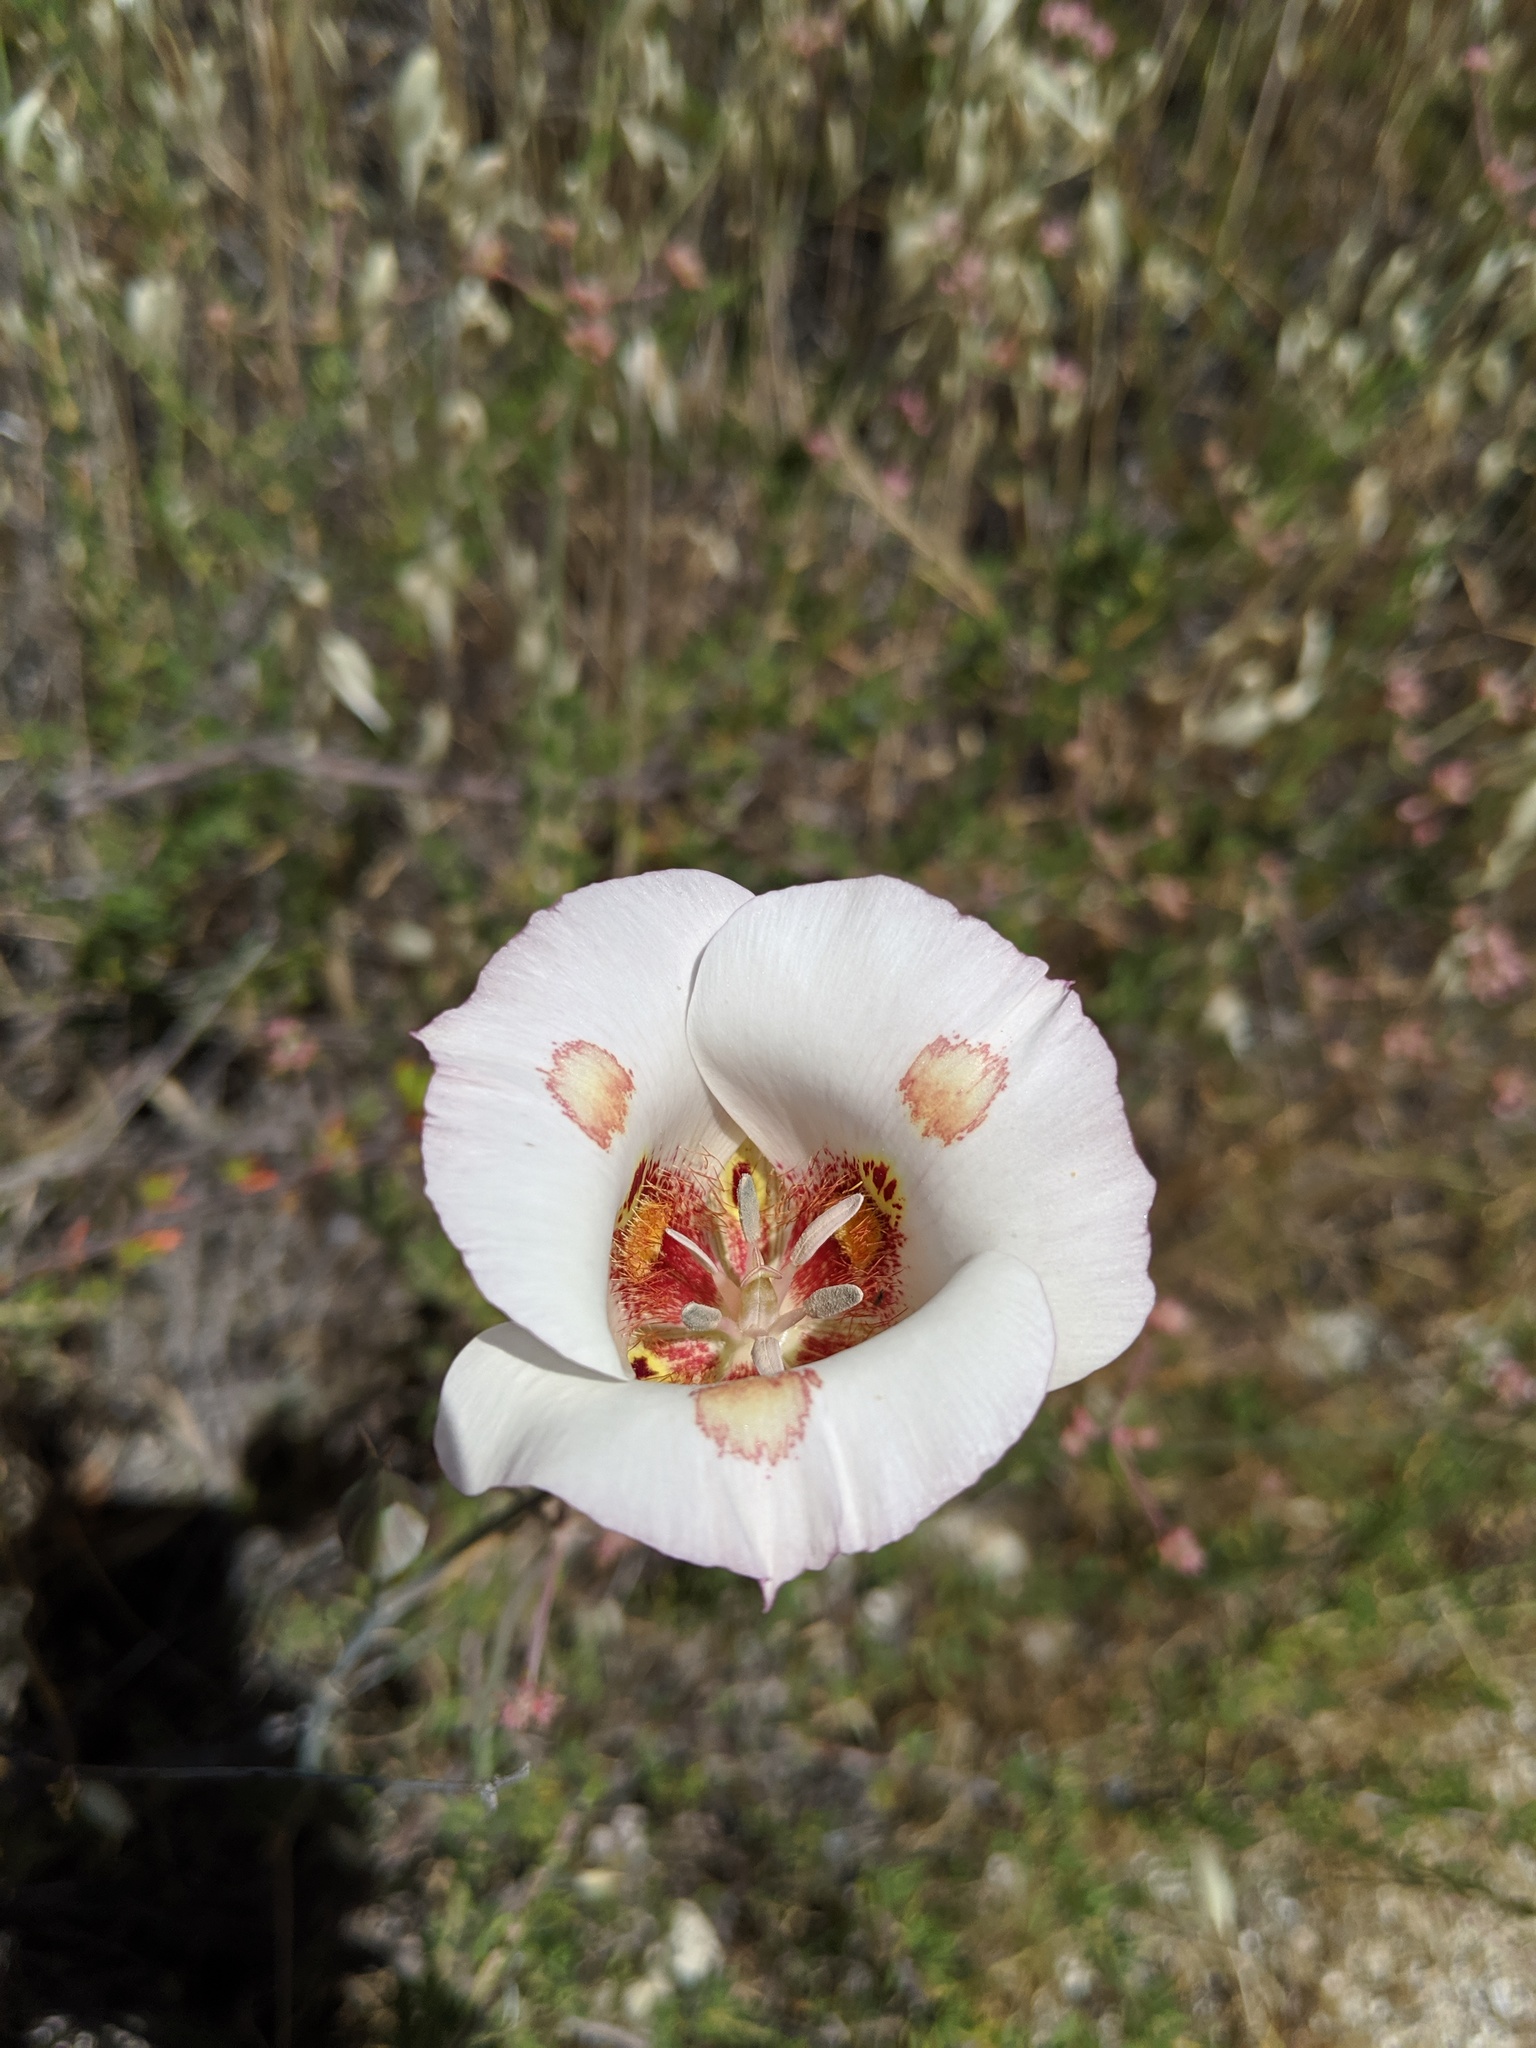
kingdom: Plantae
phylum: Tracheophyta
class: Liliopsida
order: Liliales
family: Liliaceae
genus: Calochortus
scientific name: Calochortus venustus
